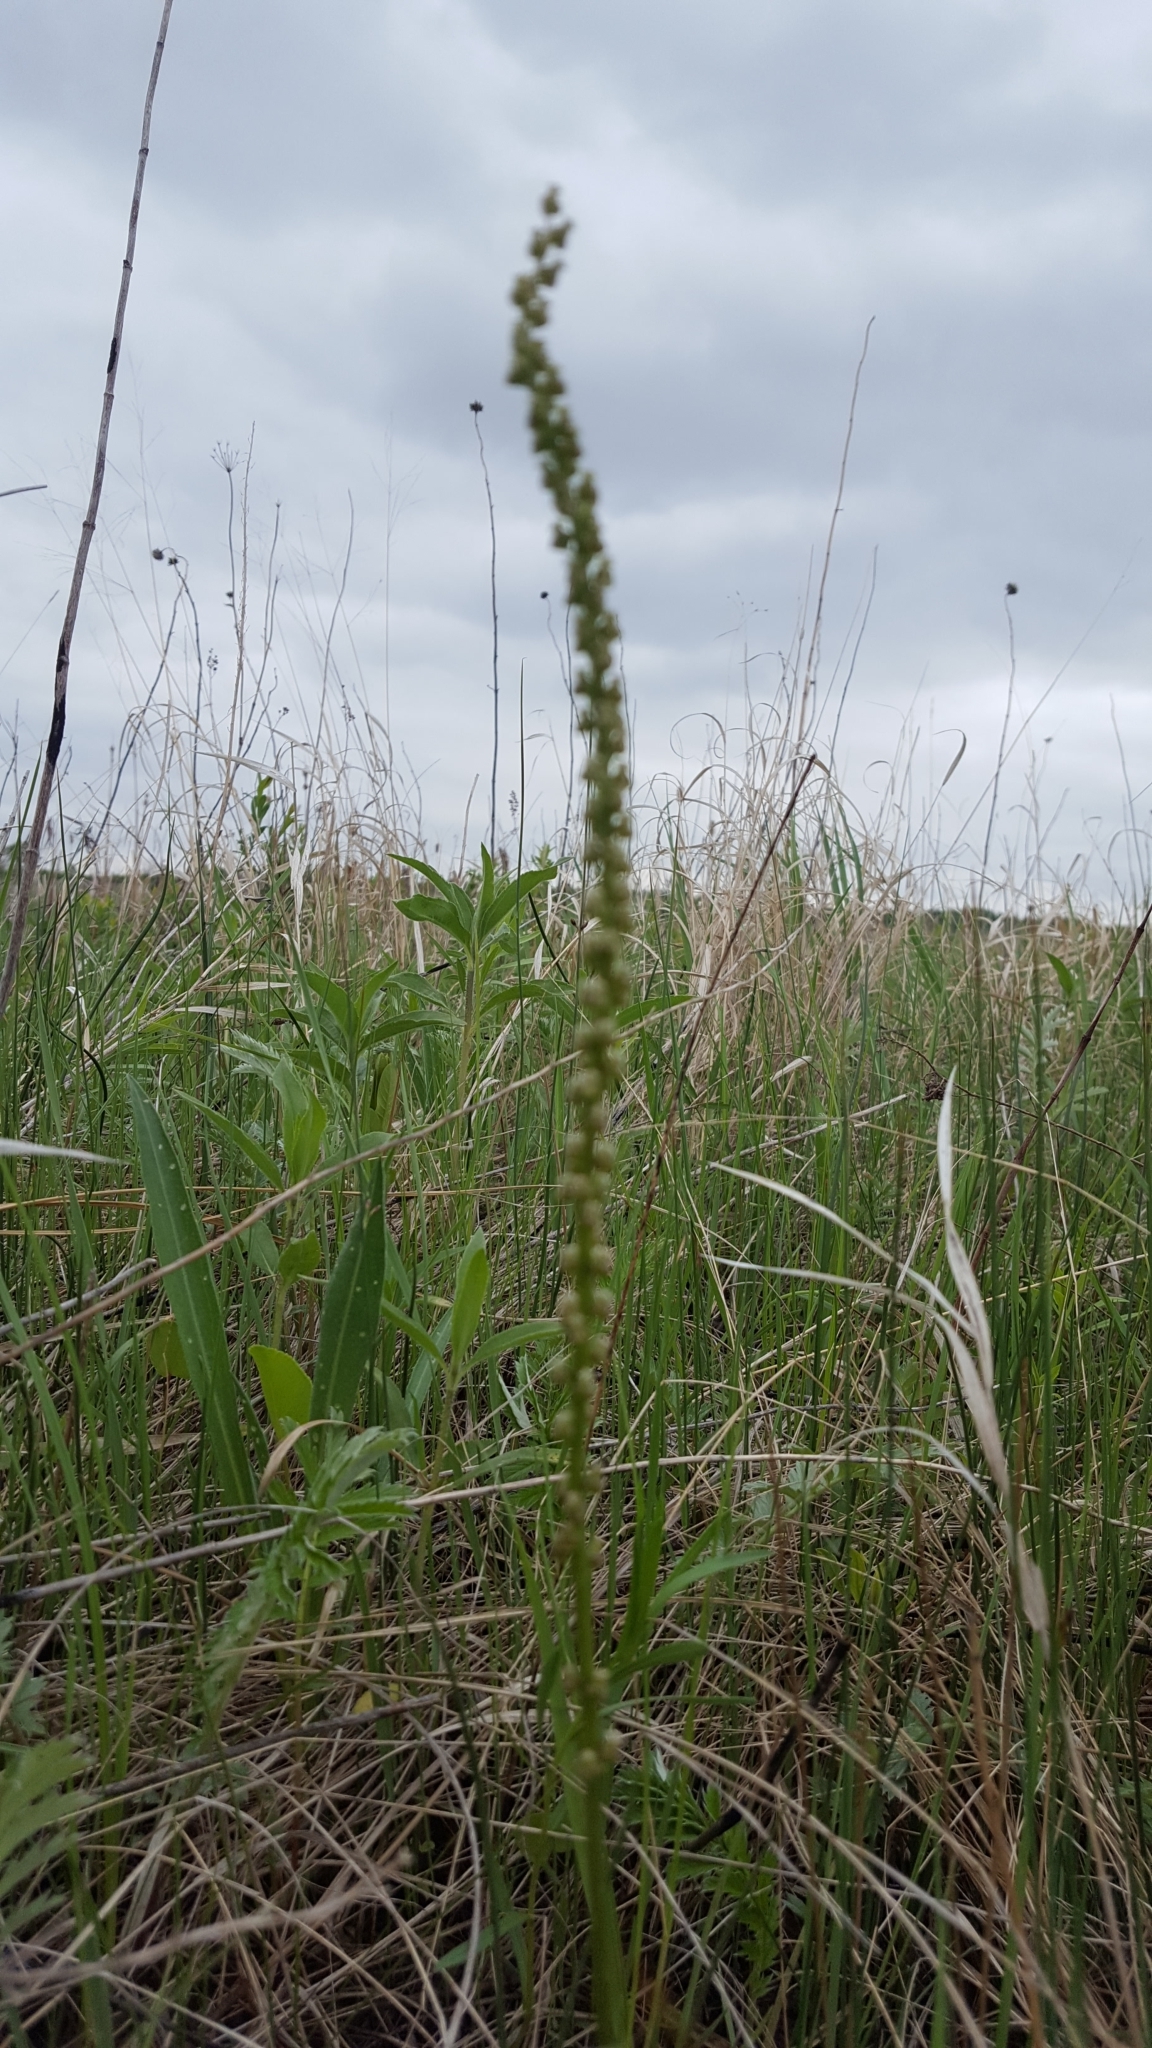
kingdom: Plantae
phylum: Tracheophyta
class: Liliopsida
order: Alismatales
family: Juncaginaceae
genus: Triglochin
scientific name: Triglochin maritima
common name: Sea arrowgrass
